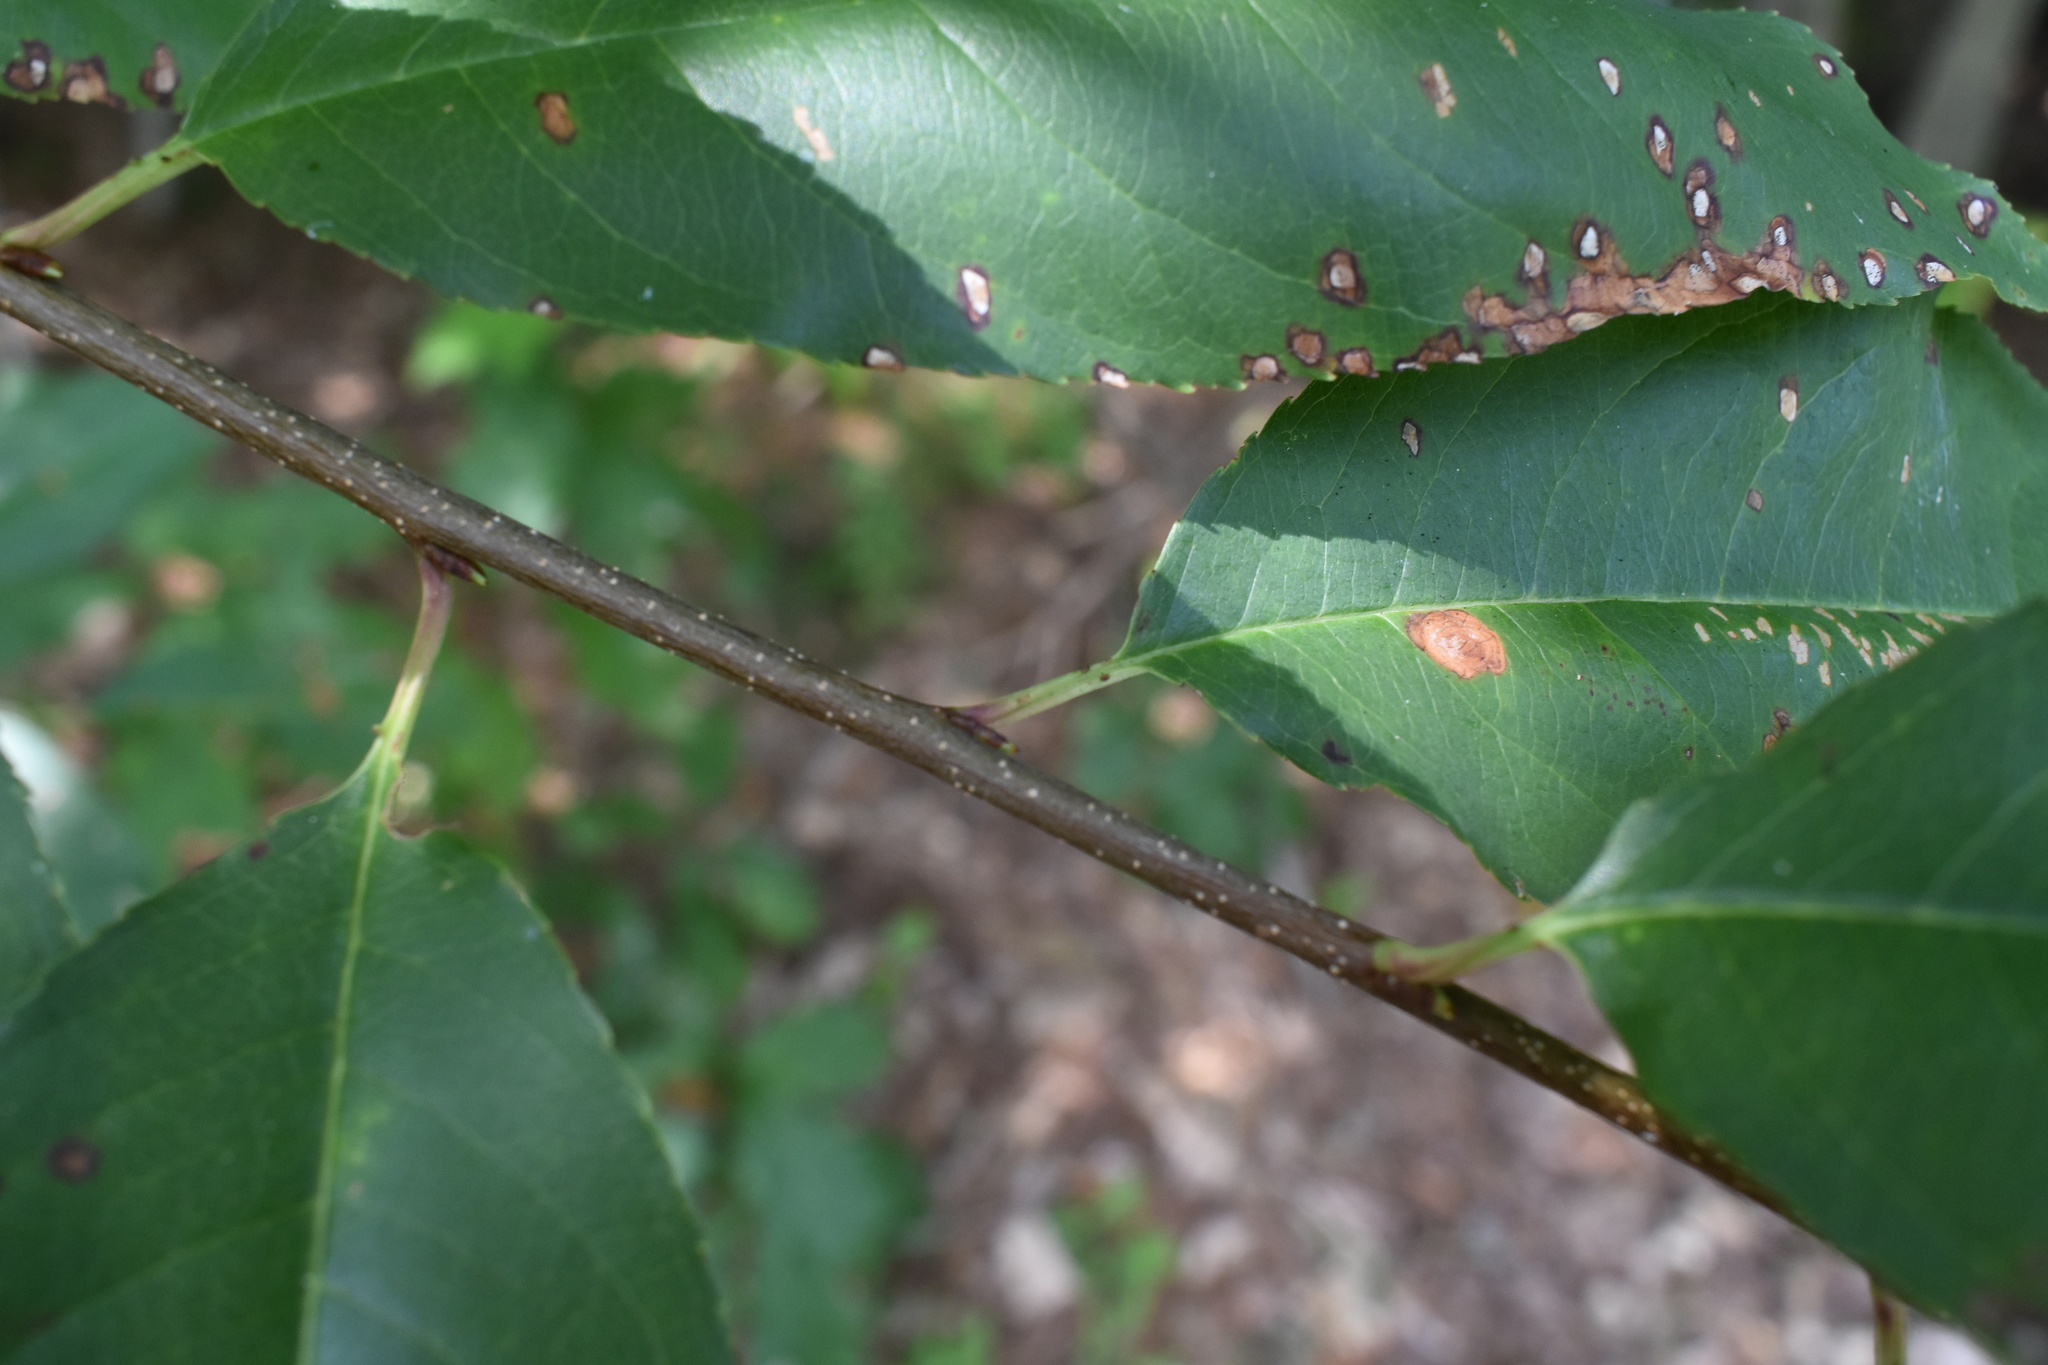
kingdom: Plantae
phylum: Tracheophyta
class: Magnoliopsida
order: Rosales
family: Rosaceae
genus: Prunus
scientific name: Prunus serotina
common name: Black cherry
